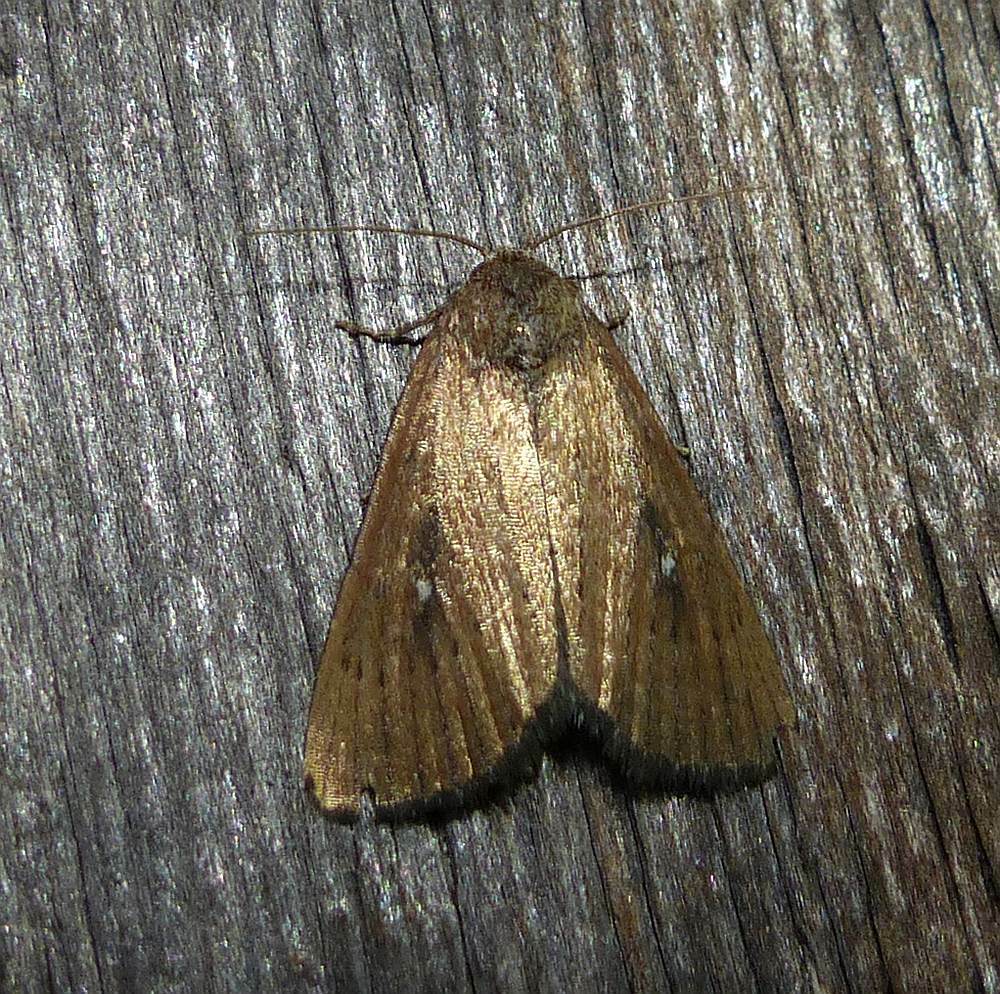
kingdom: Animalia
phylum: Arthropoda
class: Insecta
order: Lepidoptera
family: Noctuidae
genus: Condica
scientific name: Condica videns
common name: White-dotted groundling
